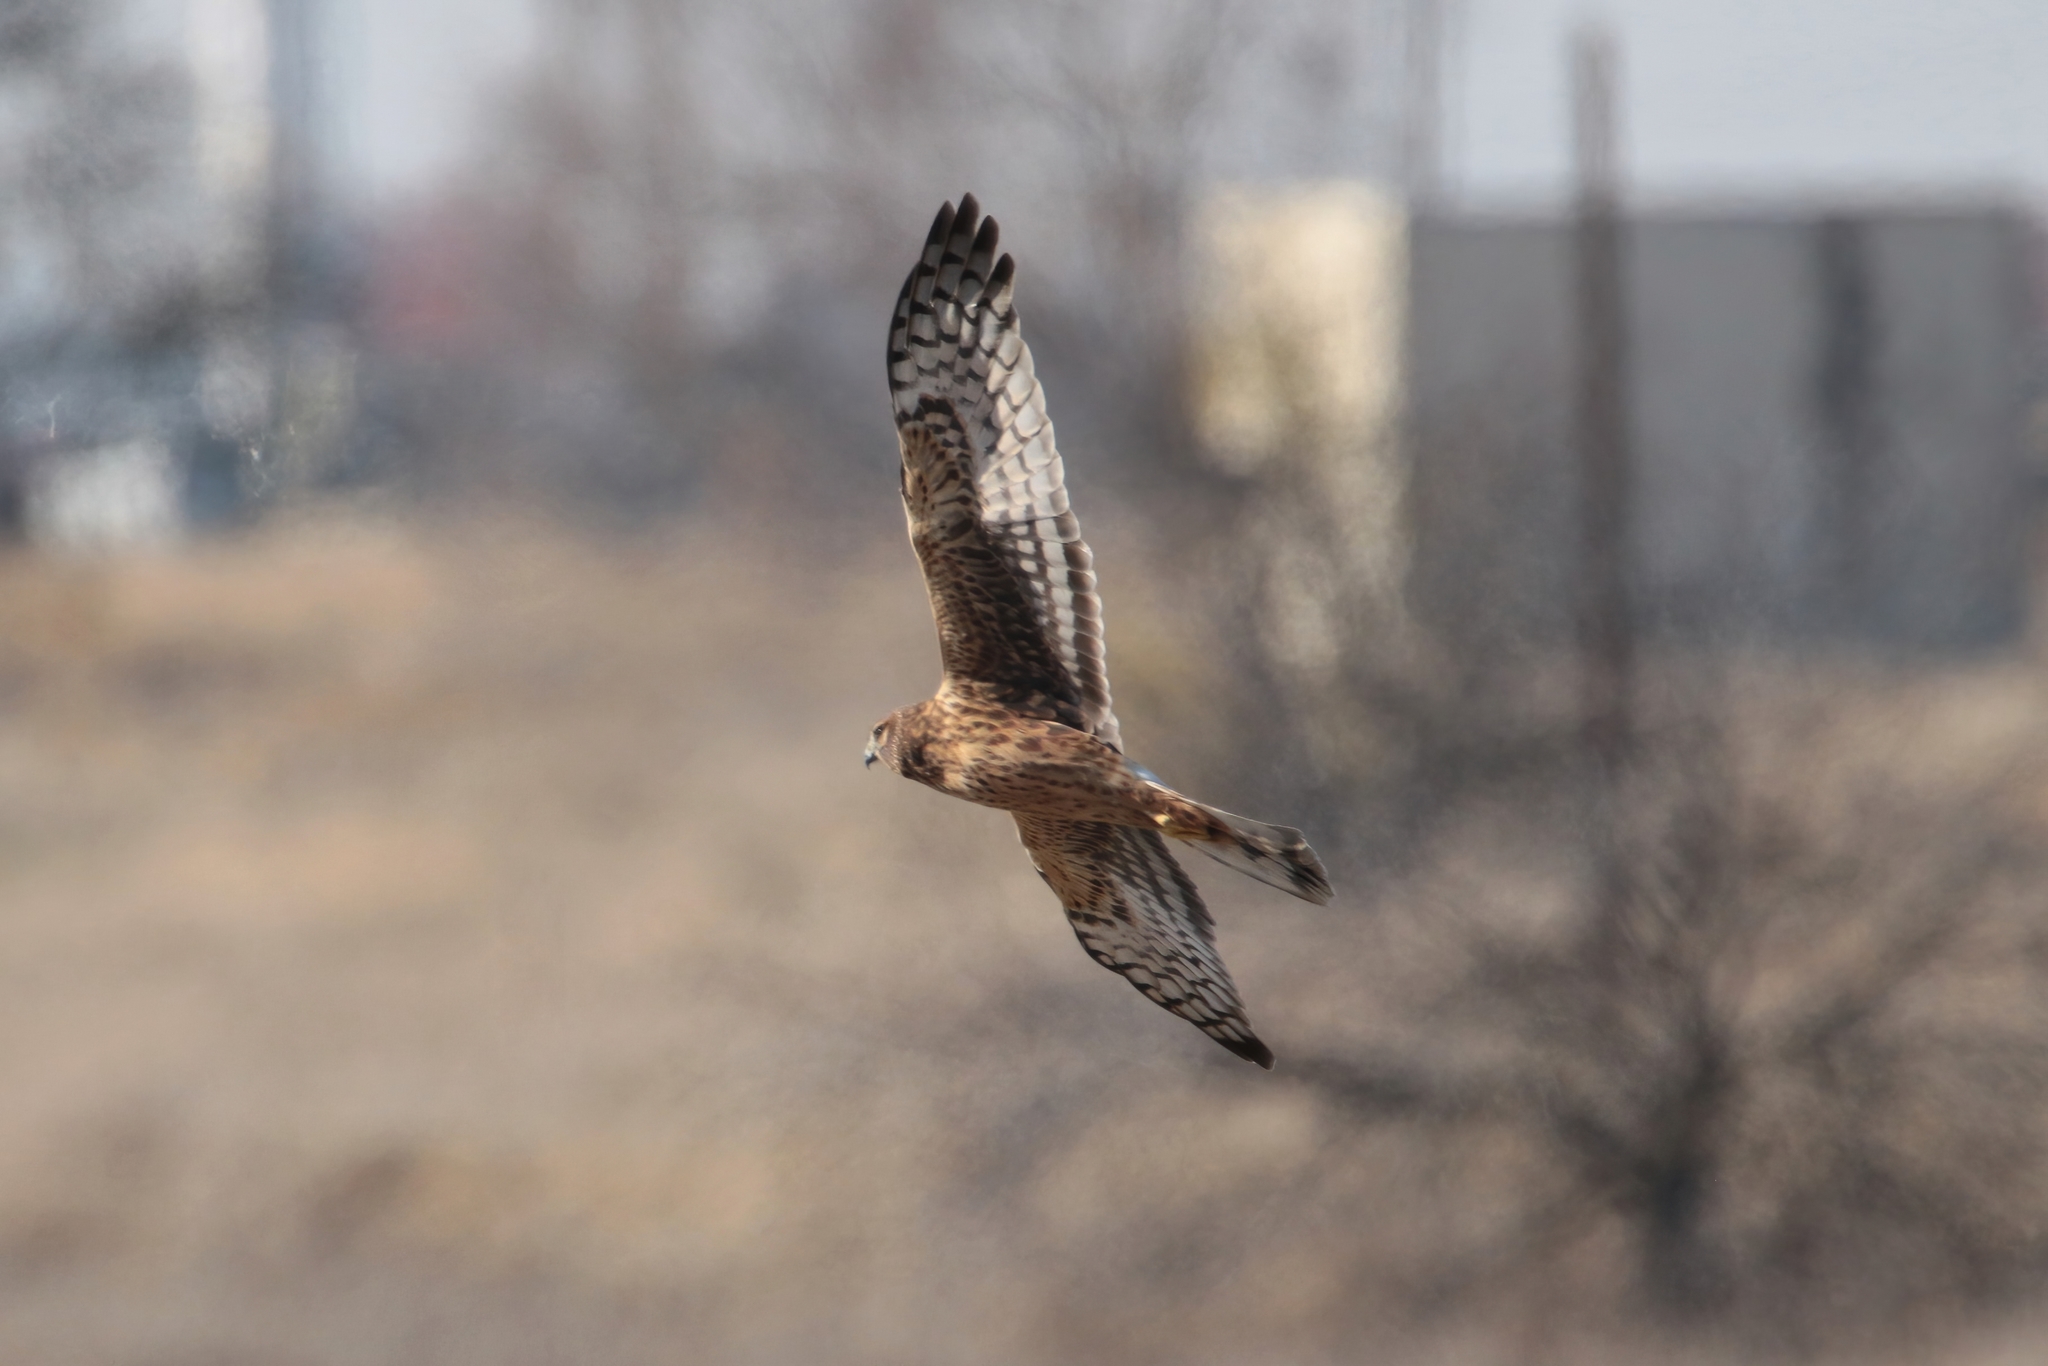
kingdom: Animalia
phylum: Chordata
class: Aves
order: Accipitriformes
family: Accipitridae
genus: Circus
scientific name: Circus cyaneus
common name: Hen harrier
